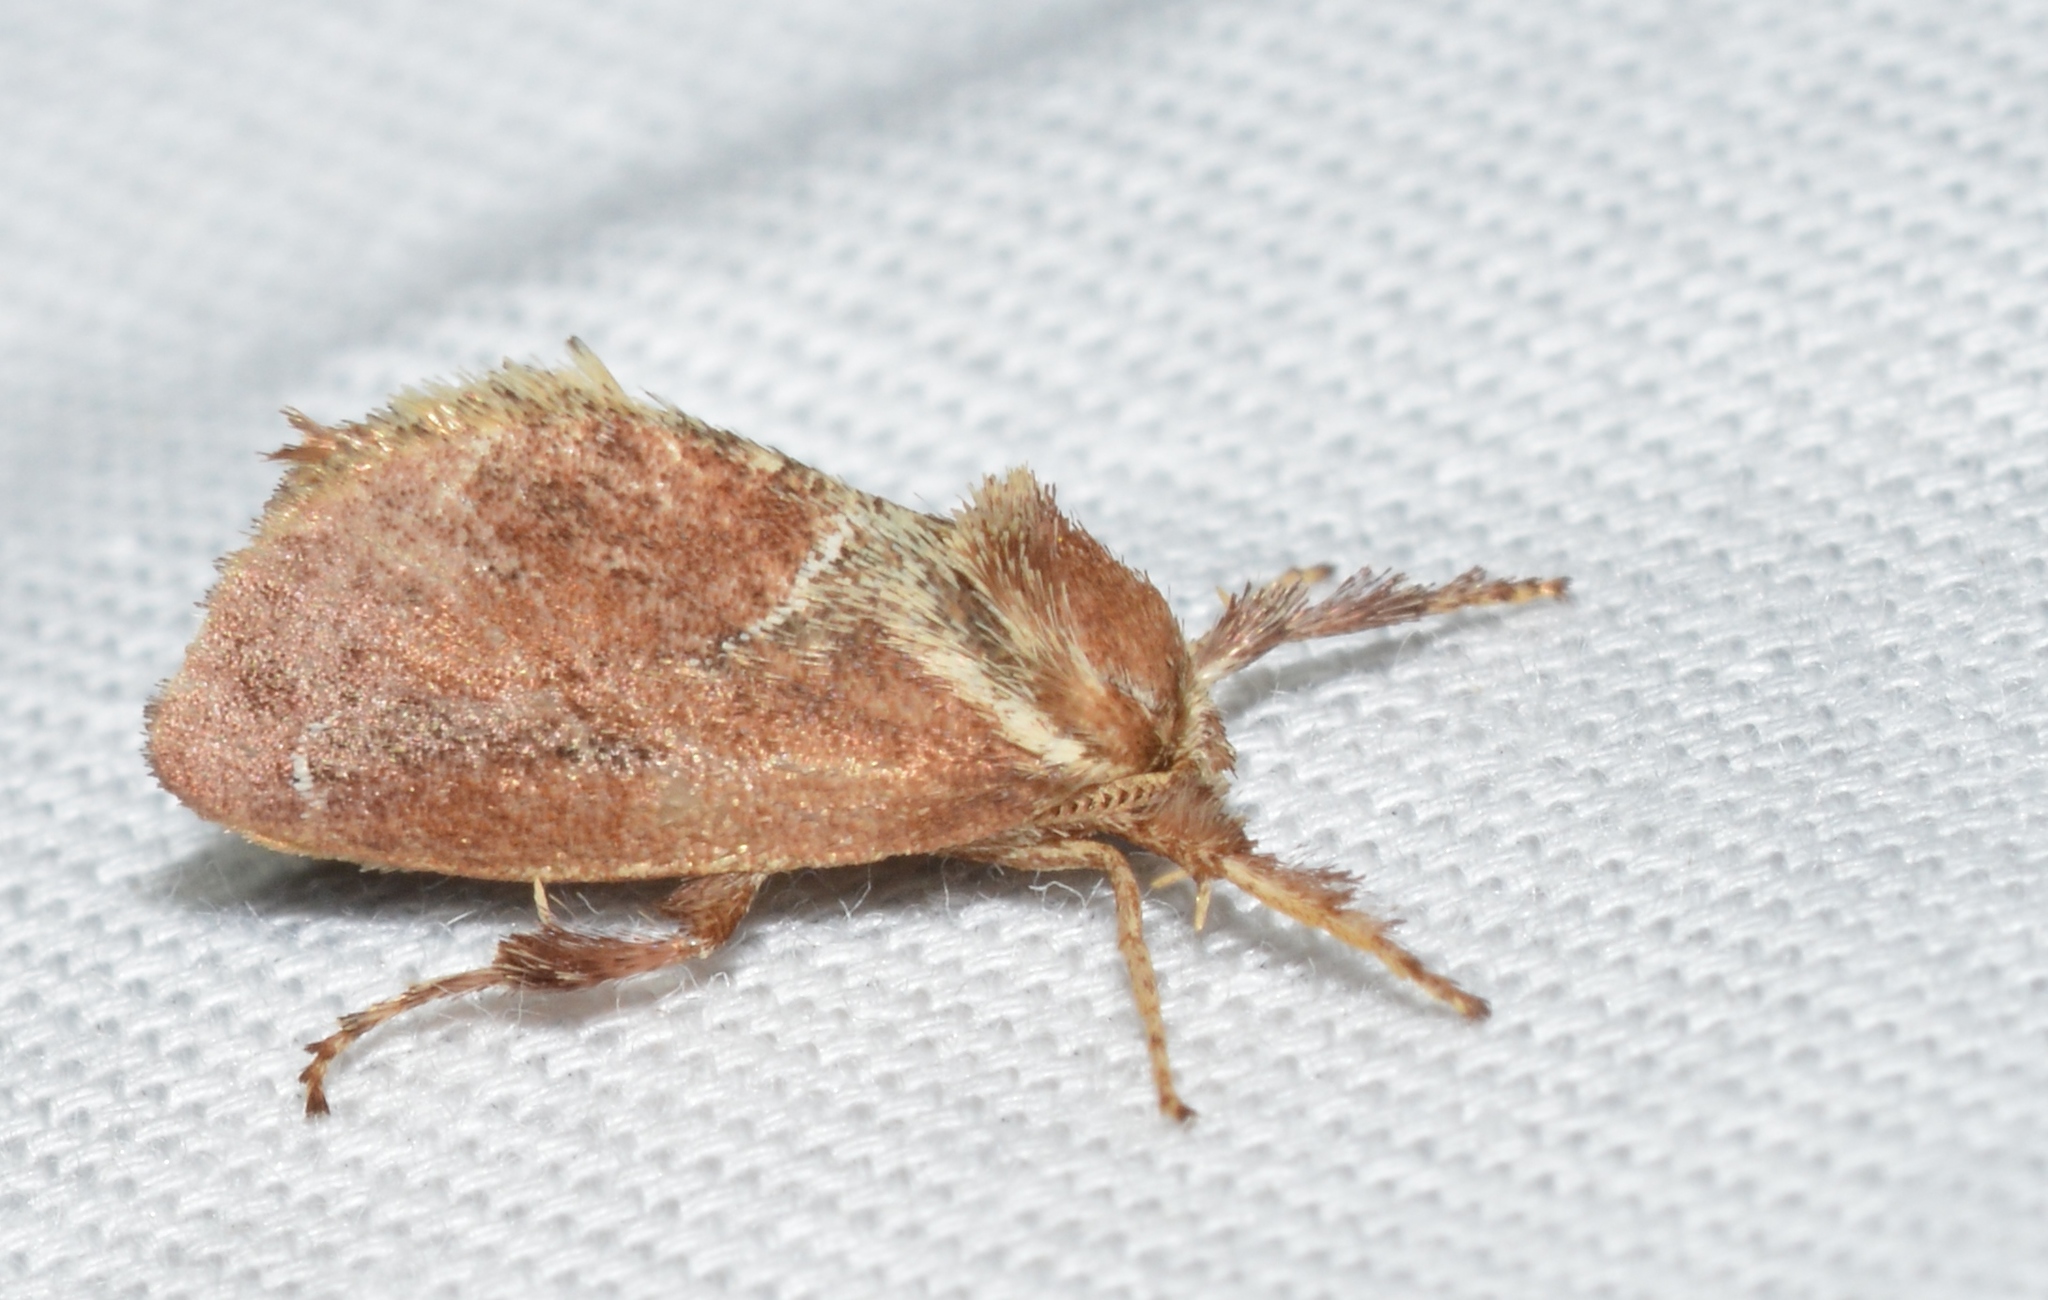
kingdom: Animalia
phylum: Arthropoda
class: Insecta
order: Lepidoptera
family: Limacodidae
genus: Adoneta
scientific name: Adoneta spinuloides
